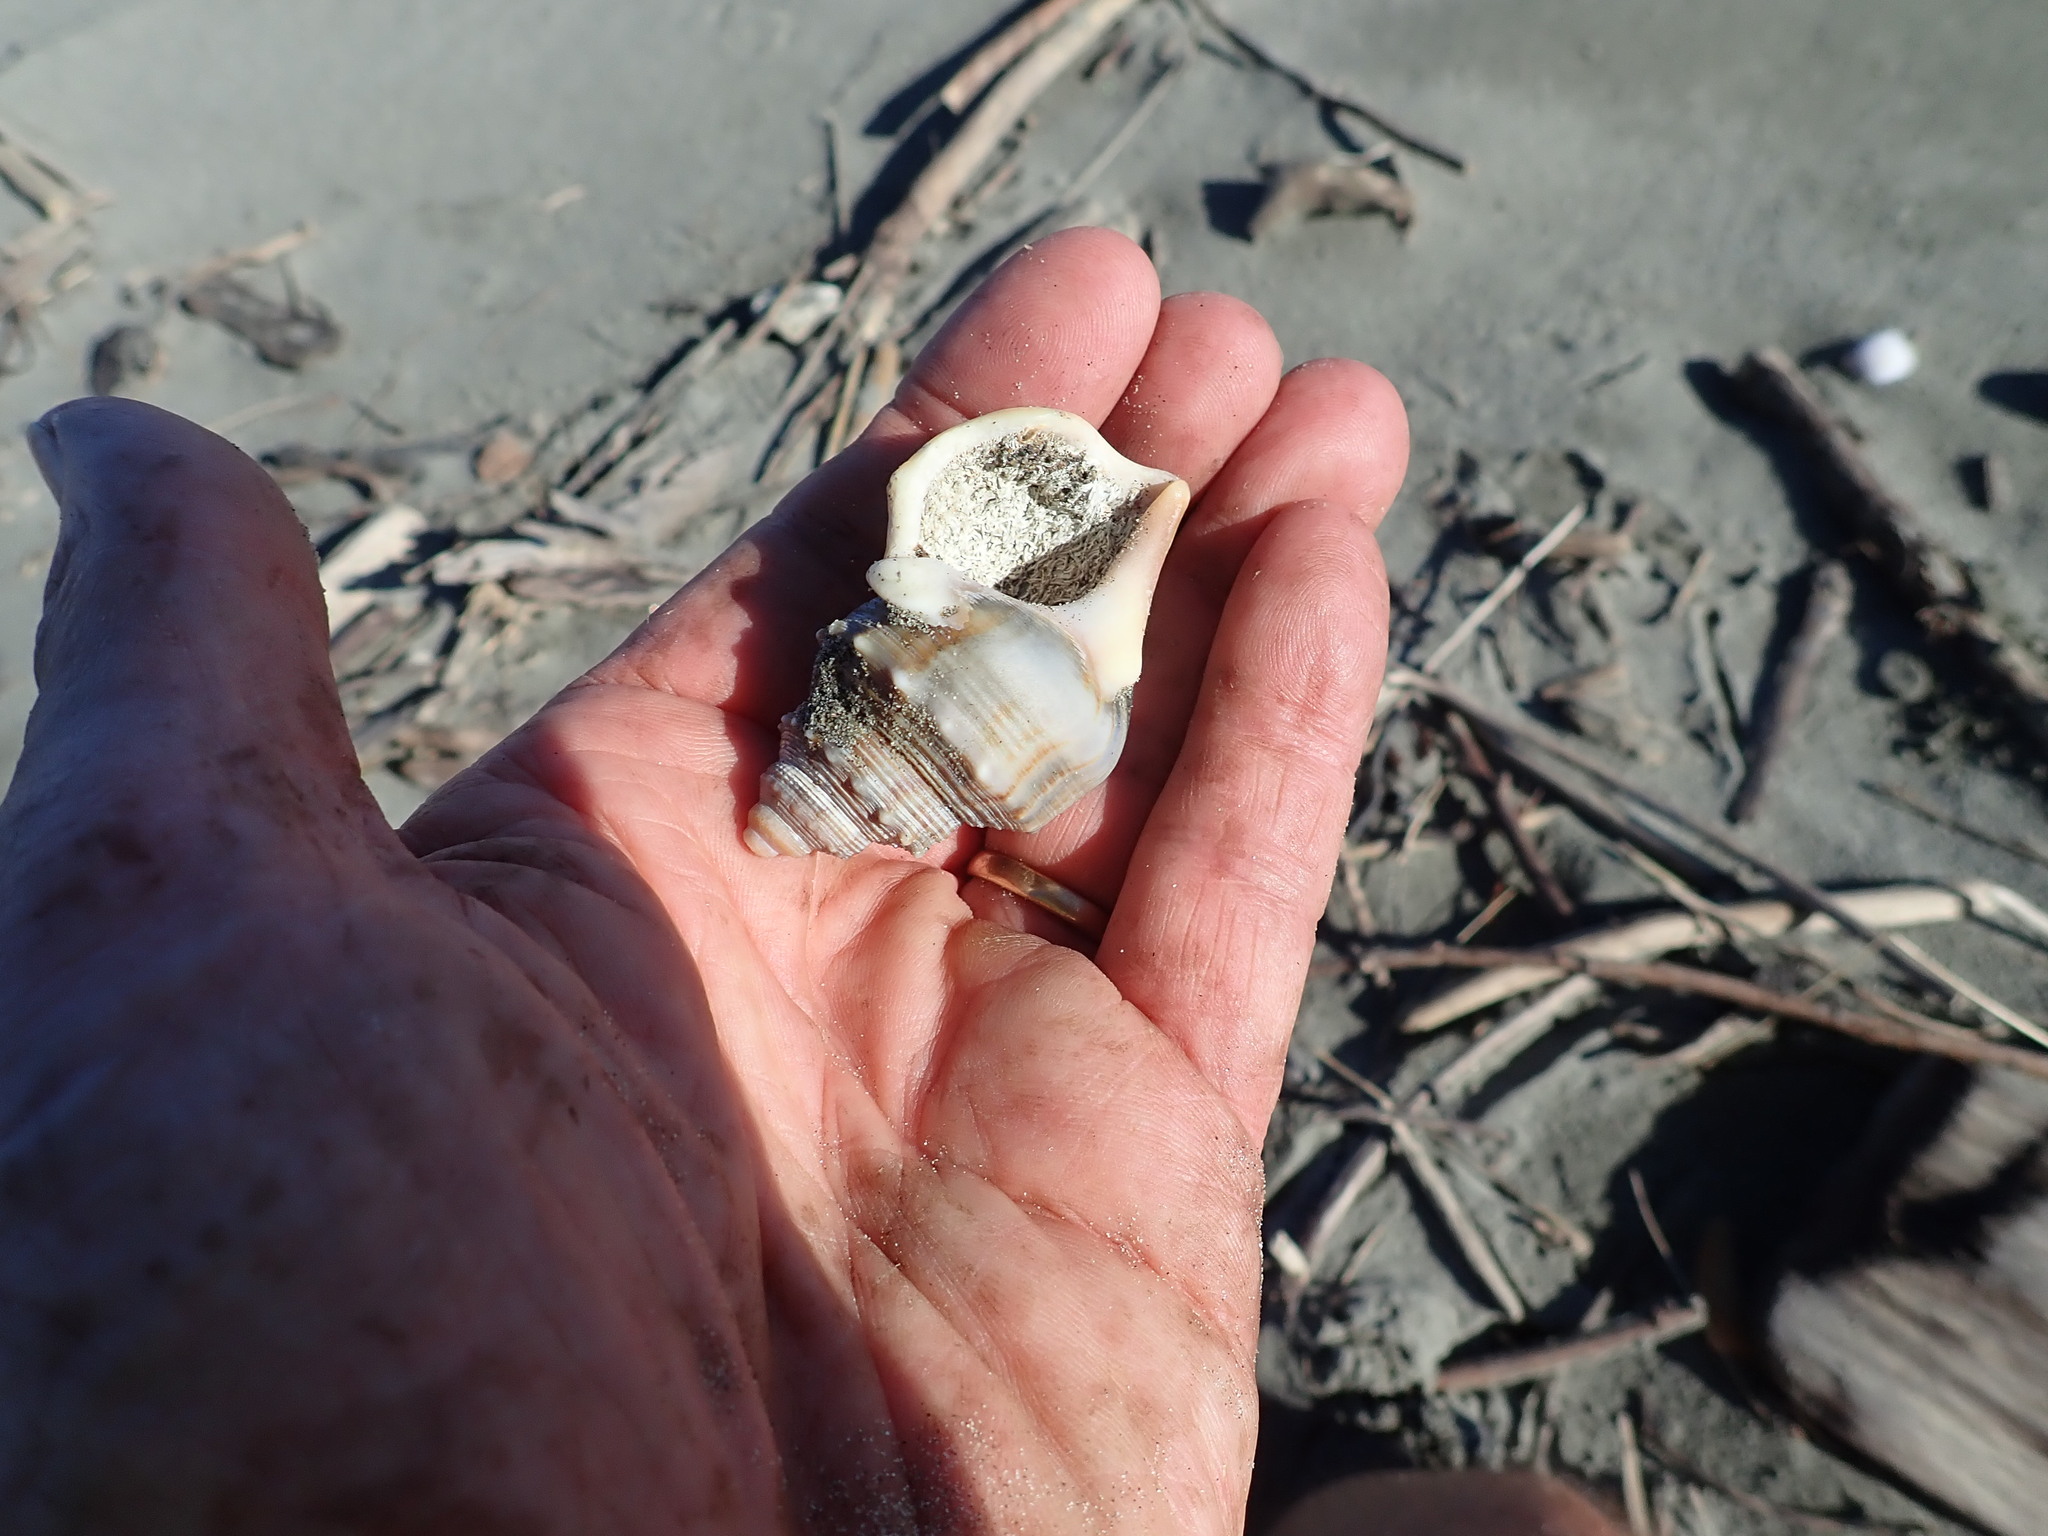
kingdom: Animalia
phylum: Mollusca
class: Gastropoda
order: Littorinimorpha
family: Struthiolariidae
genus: Struthiolaria
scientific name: Struthiolaria papulosa
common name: Large ostrich foot
